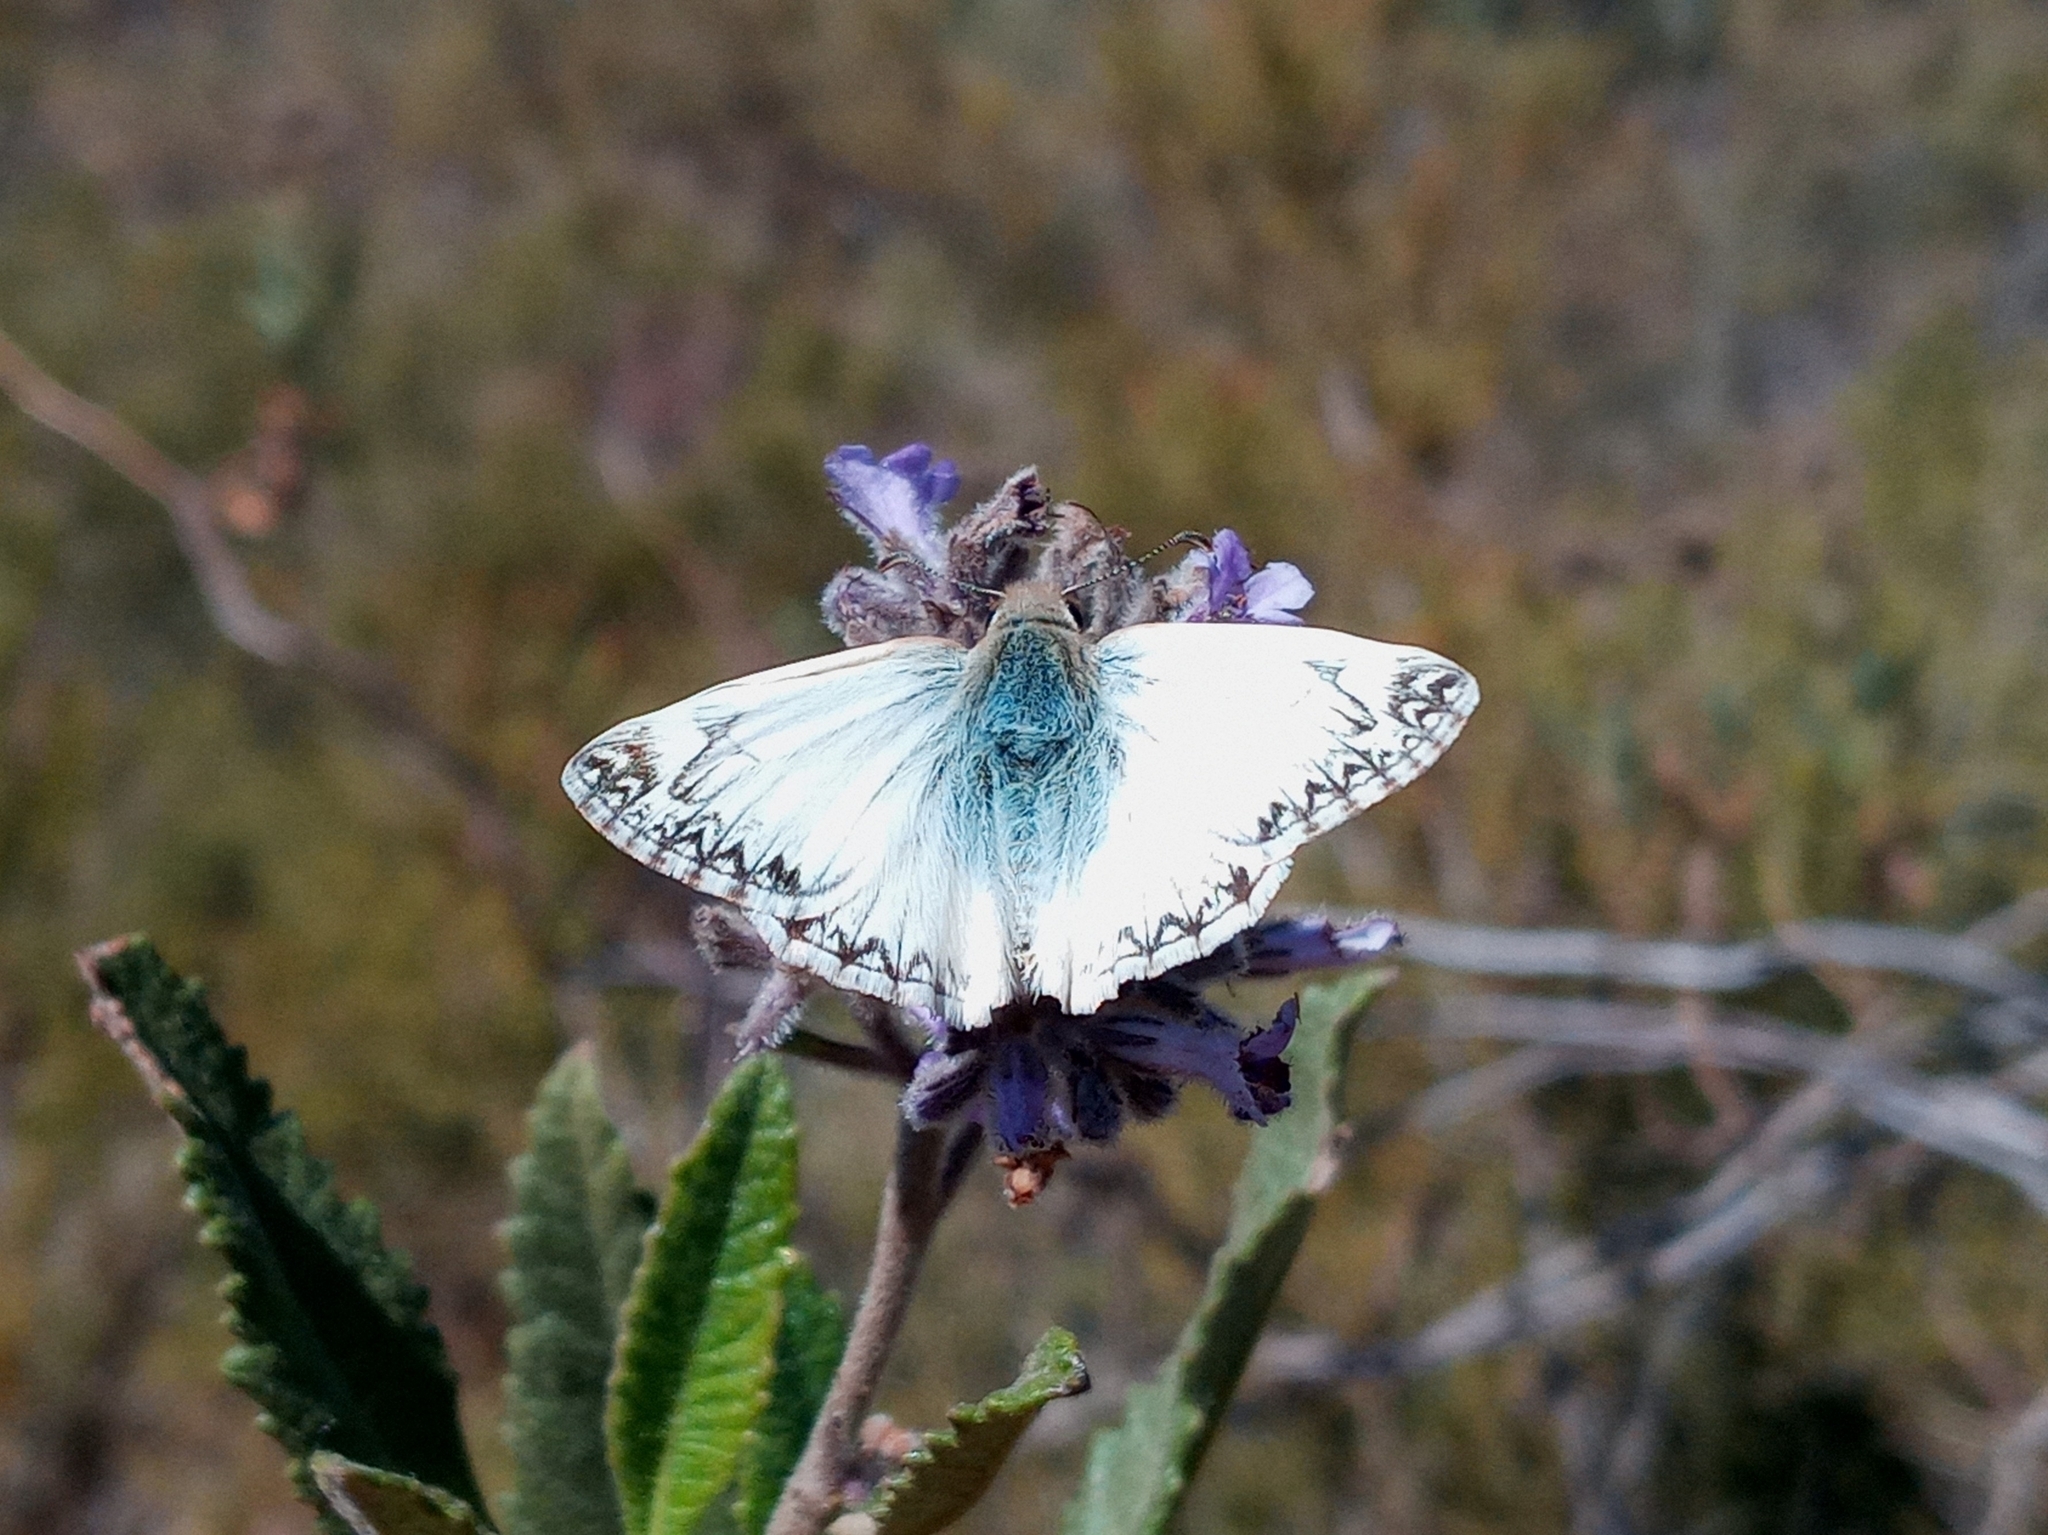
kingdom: Animalia
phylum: Arthropoda
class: Insecta
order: Lepidoptera
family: Hesperiidae
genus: Heliopetes
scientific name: Heliopetes ericetorum
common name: Northern white-skipper
